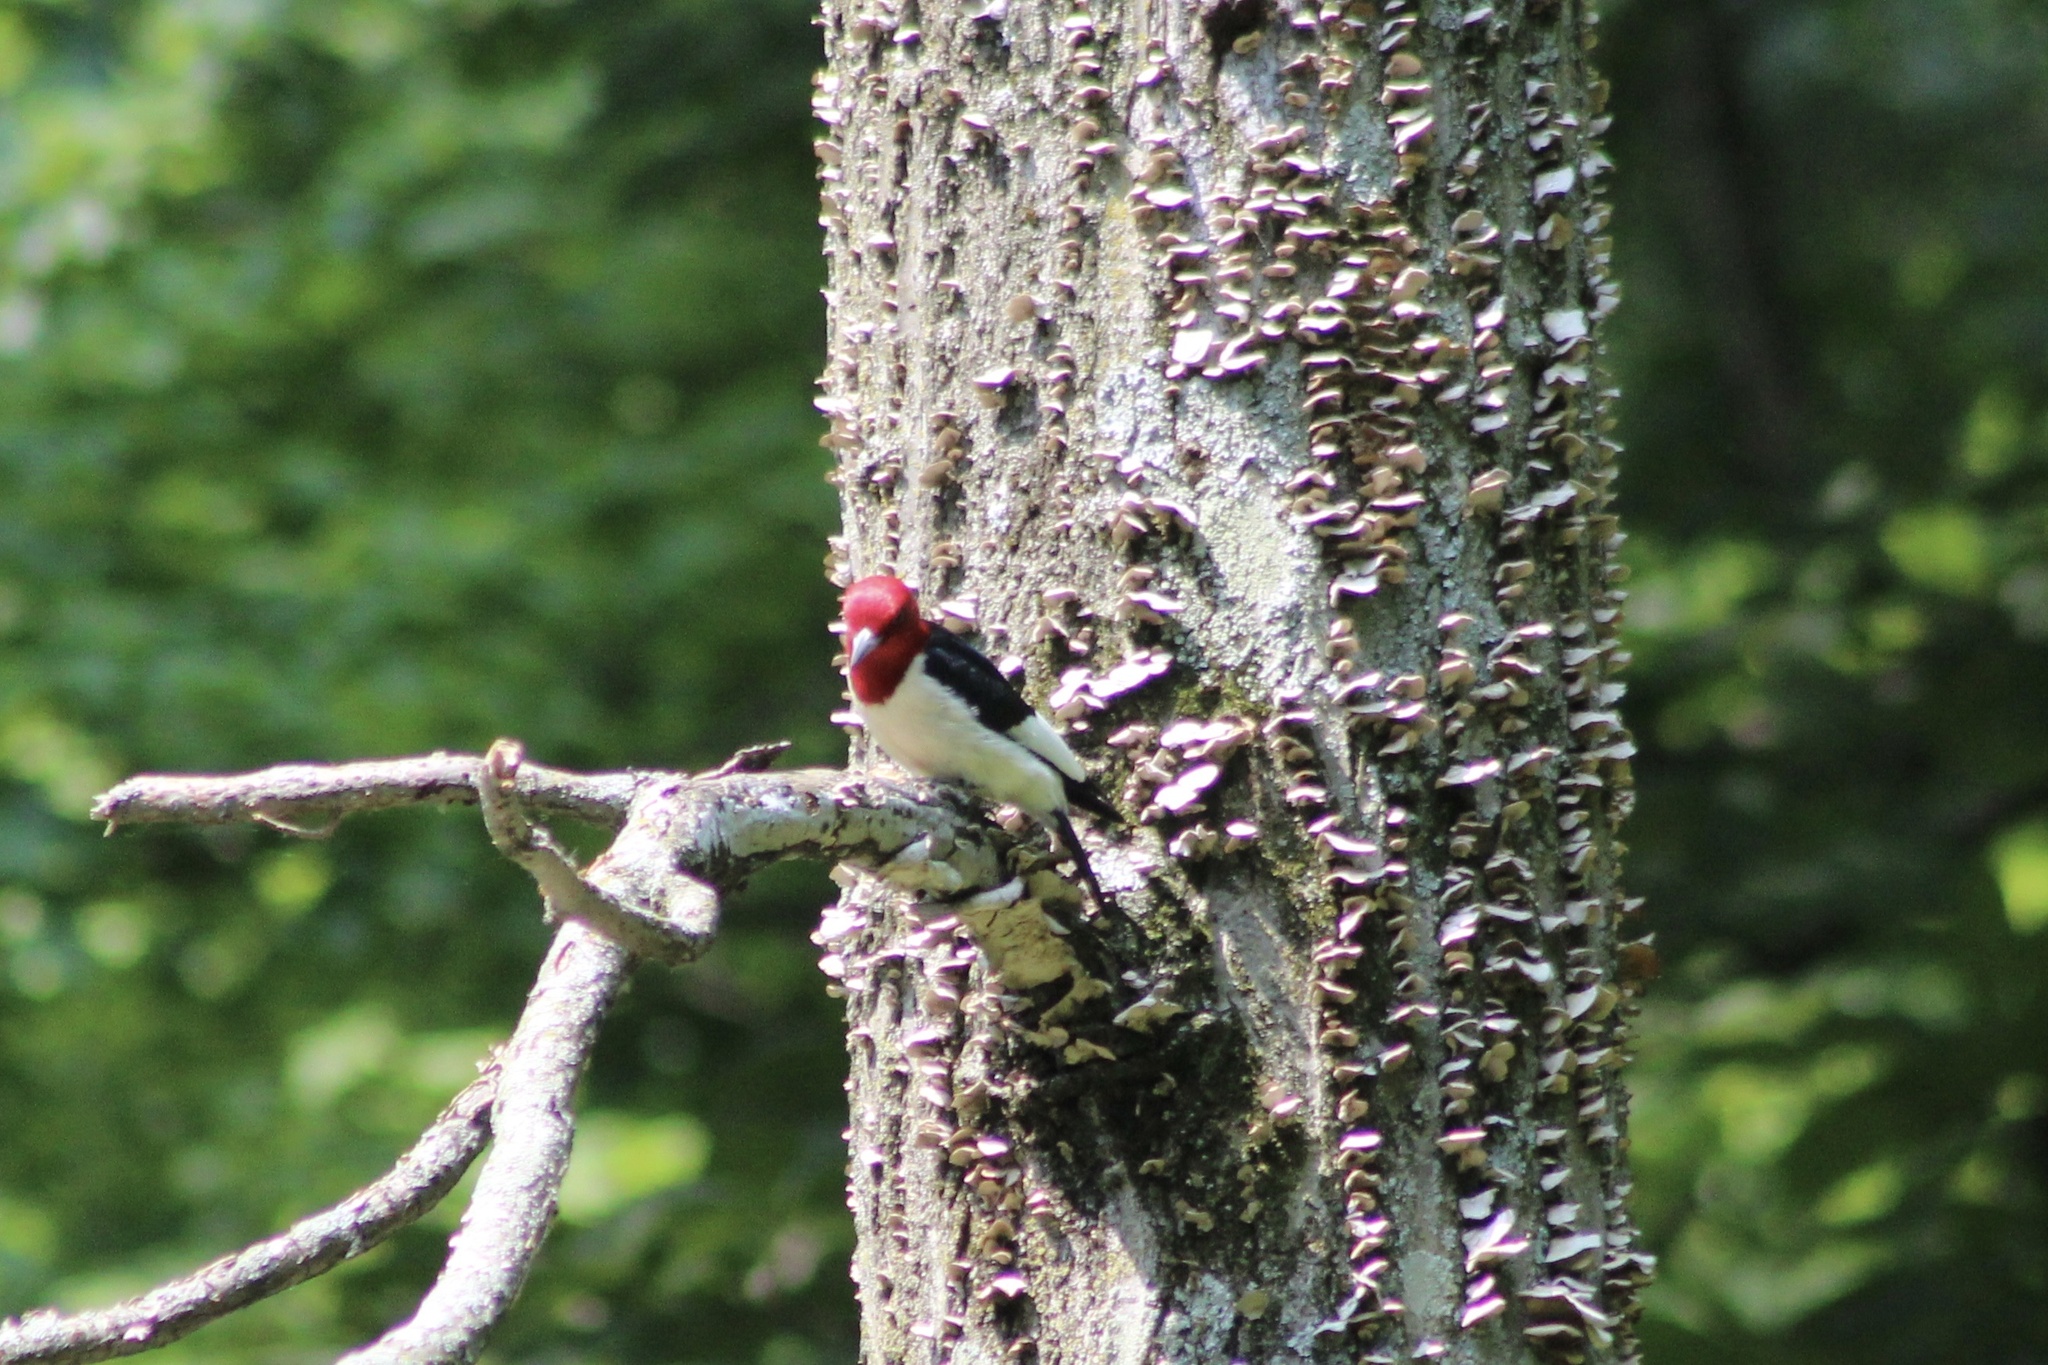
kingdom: Animalia
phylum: Chordata
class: Aves
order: Piciformes
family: Picidae
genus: Melanerpes
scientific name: Melanerpes erythrocephalus
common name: Red-headed woodpecker
